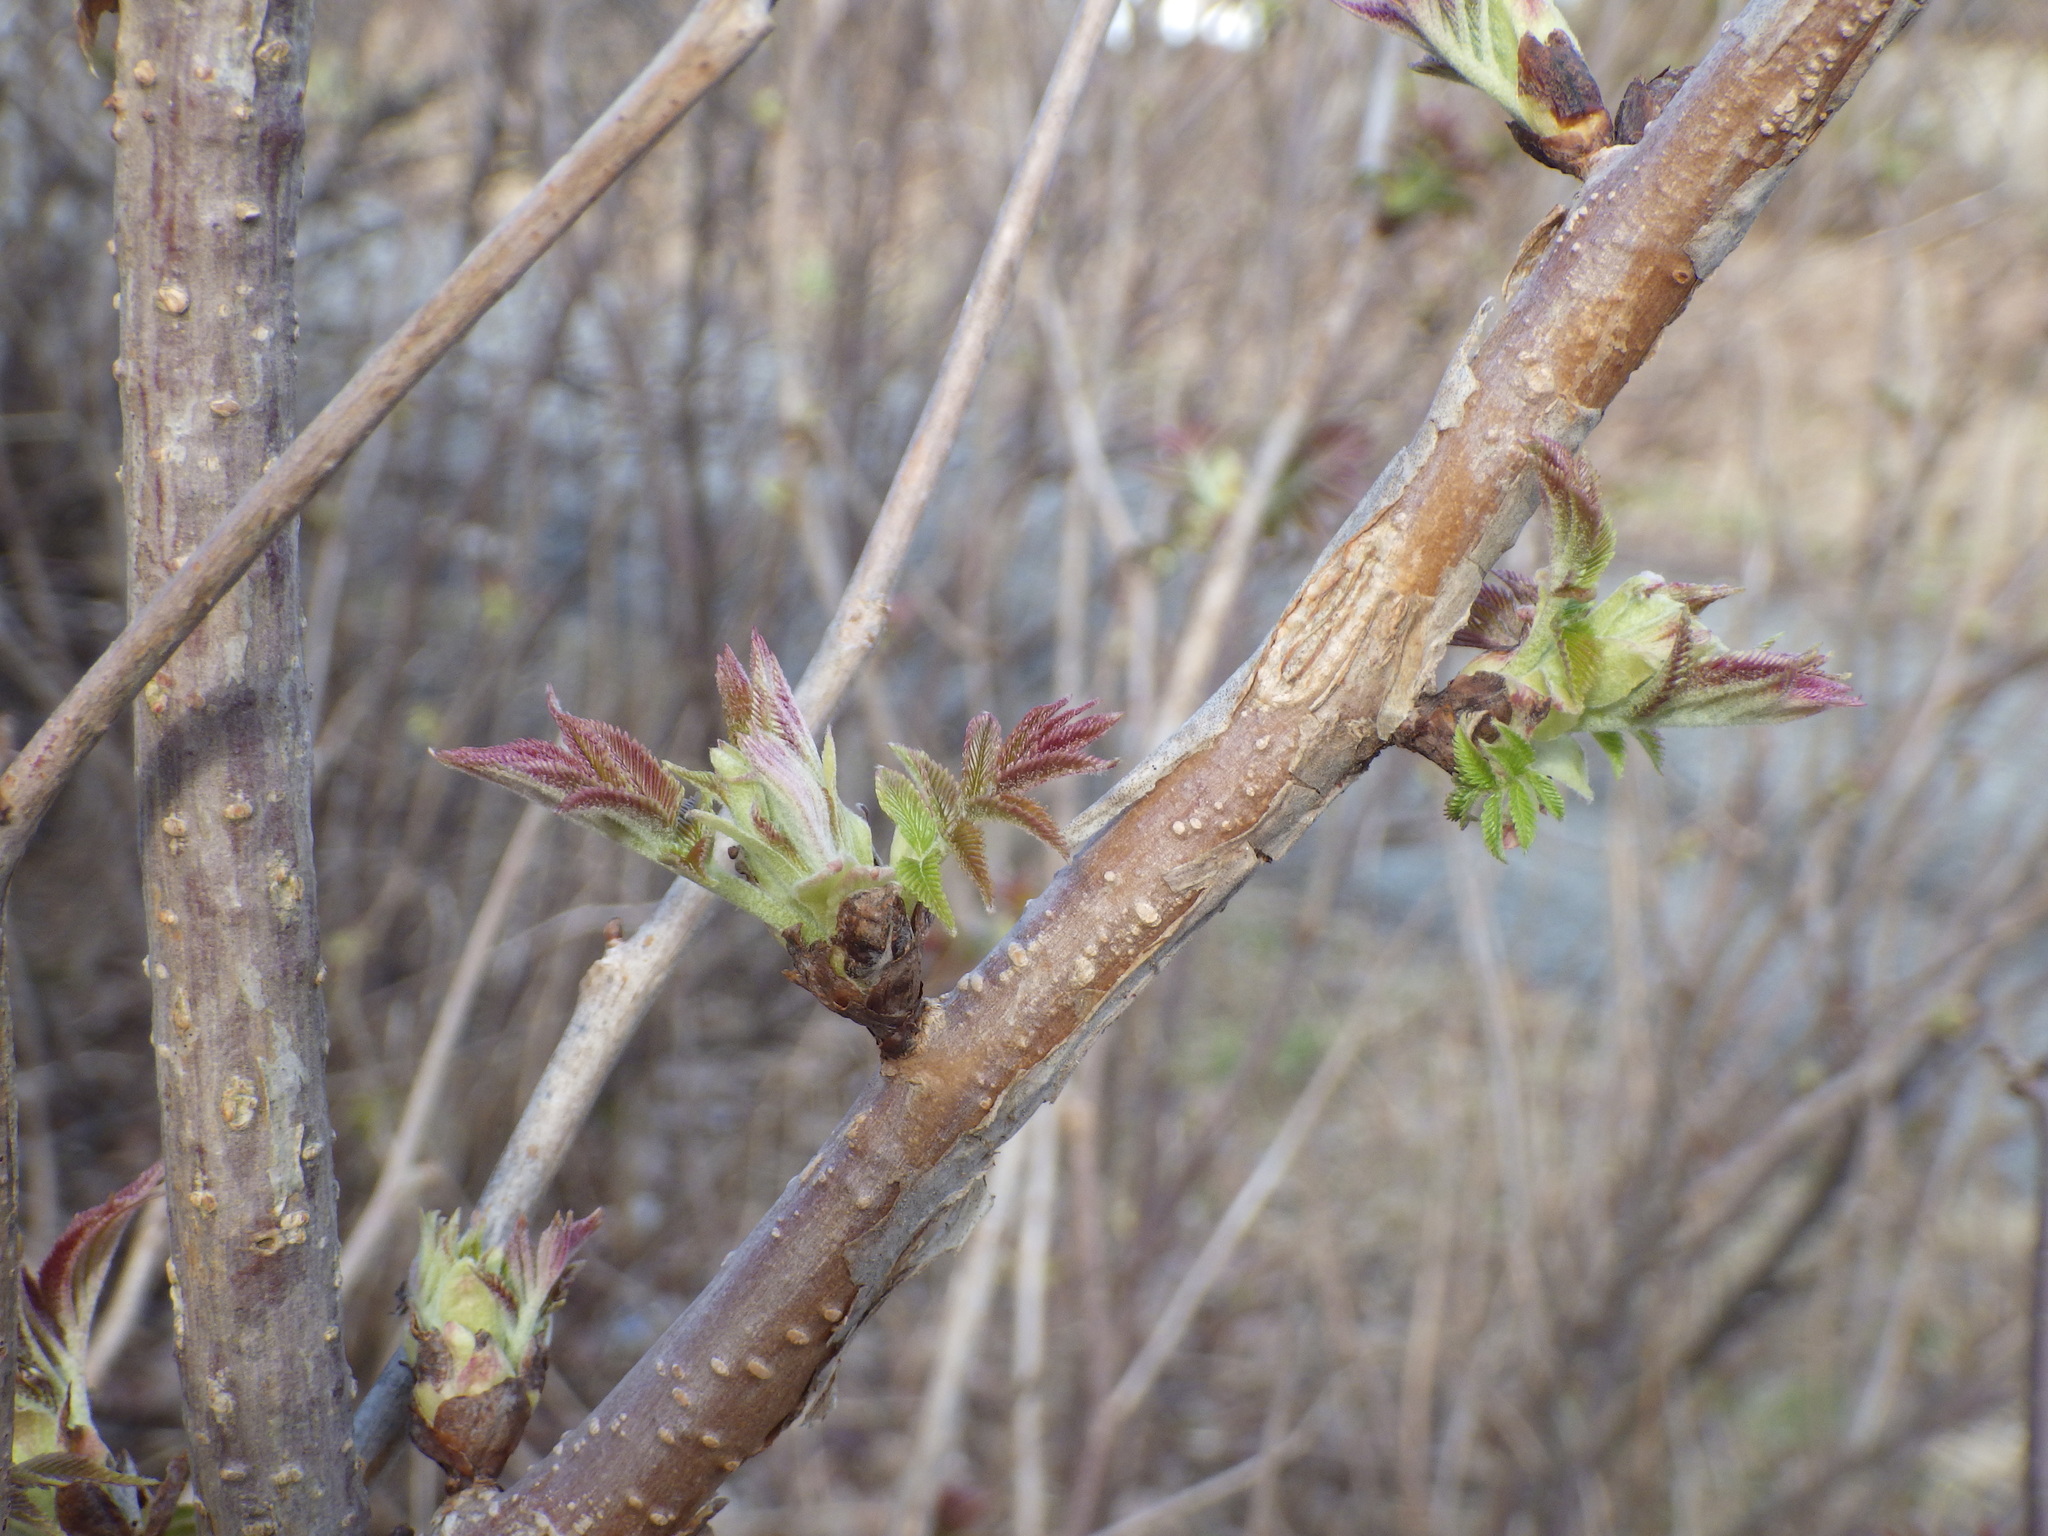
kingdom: Plantae
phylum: Tracheophyta
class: Magnoliopsida
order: Dipsacales
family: Viburnaceae
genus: Sambucus
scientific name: Sambucus racemosa
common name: Red-berried elder
